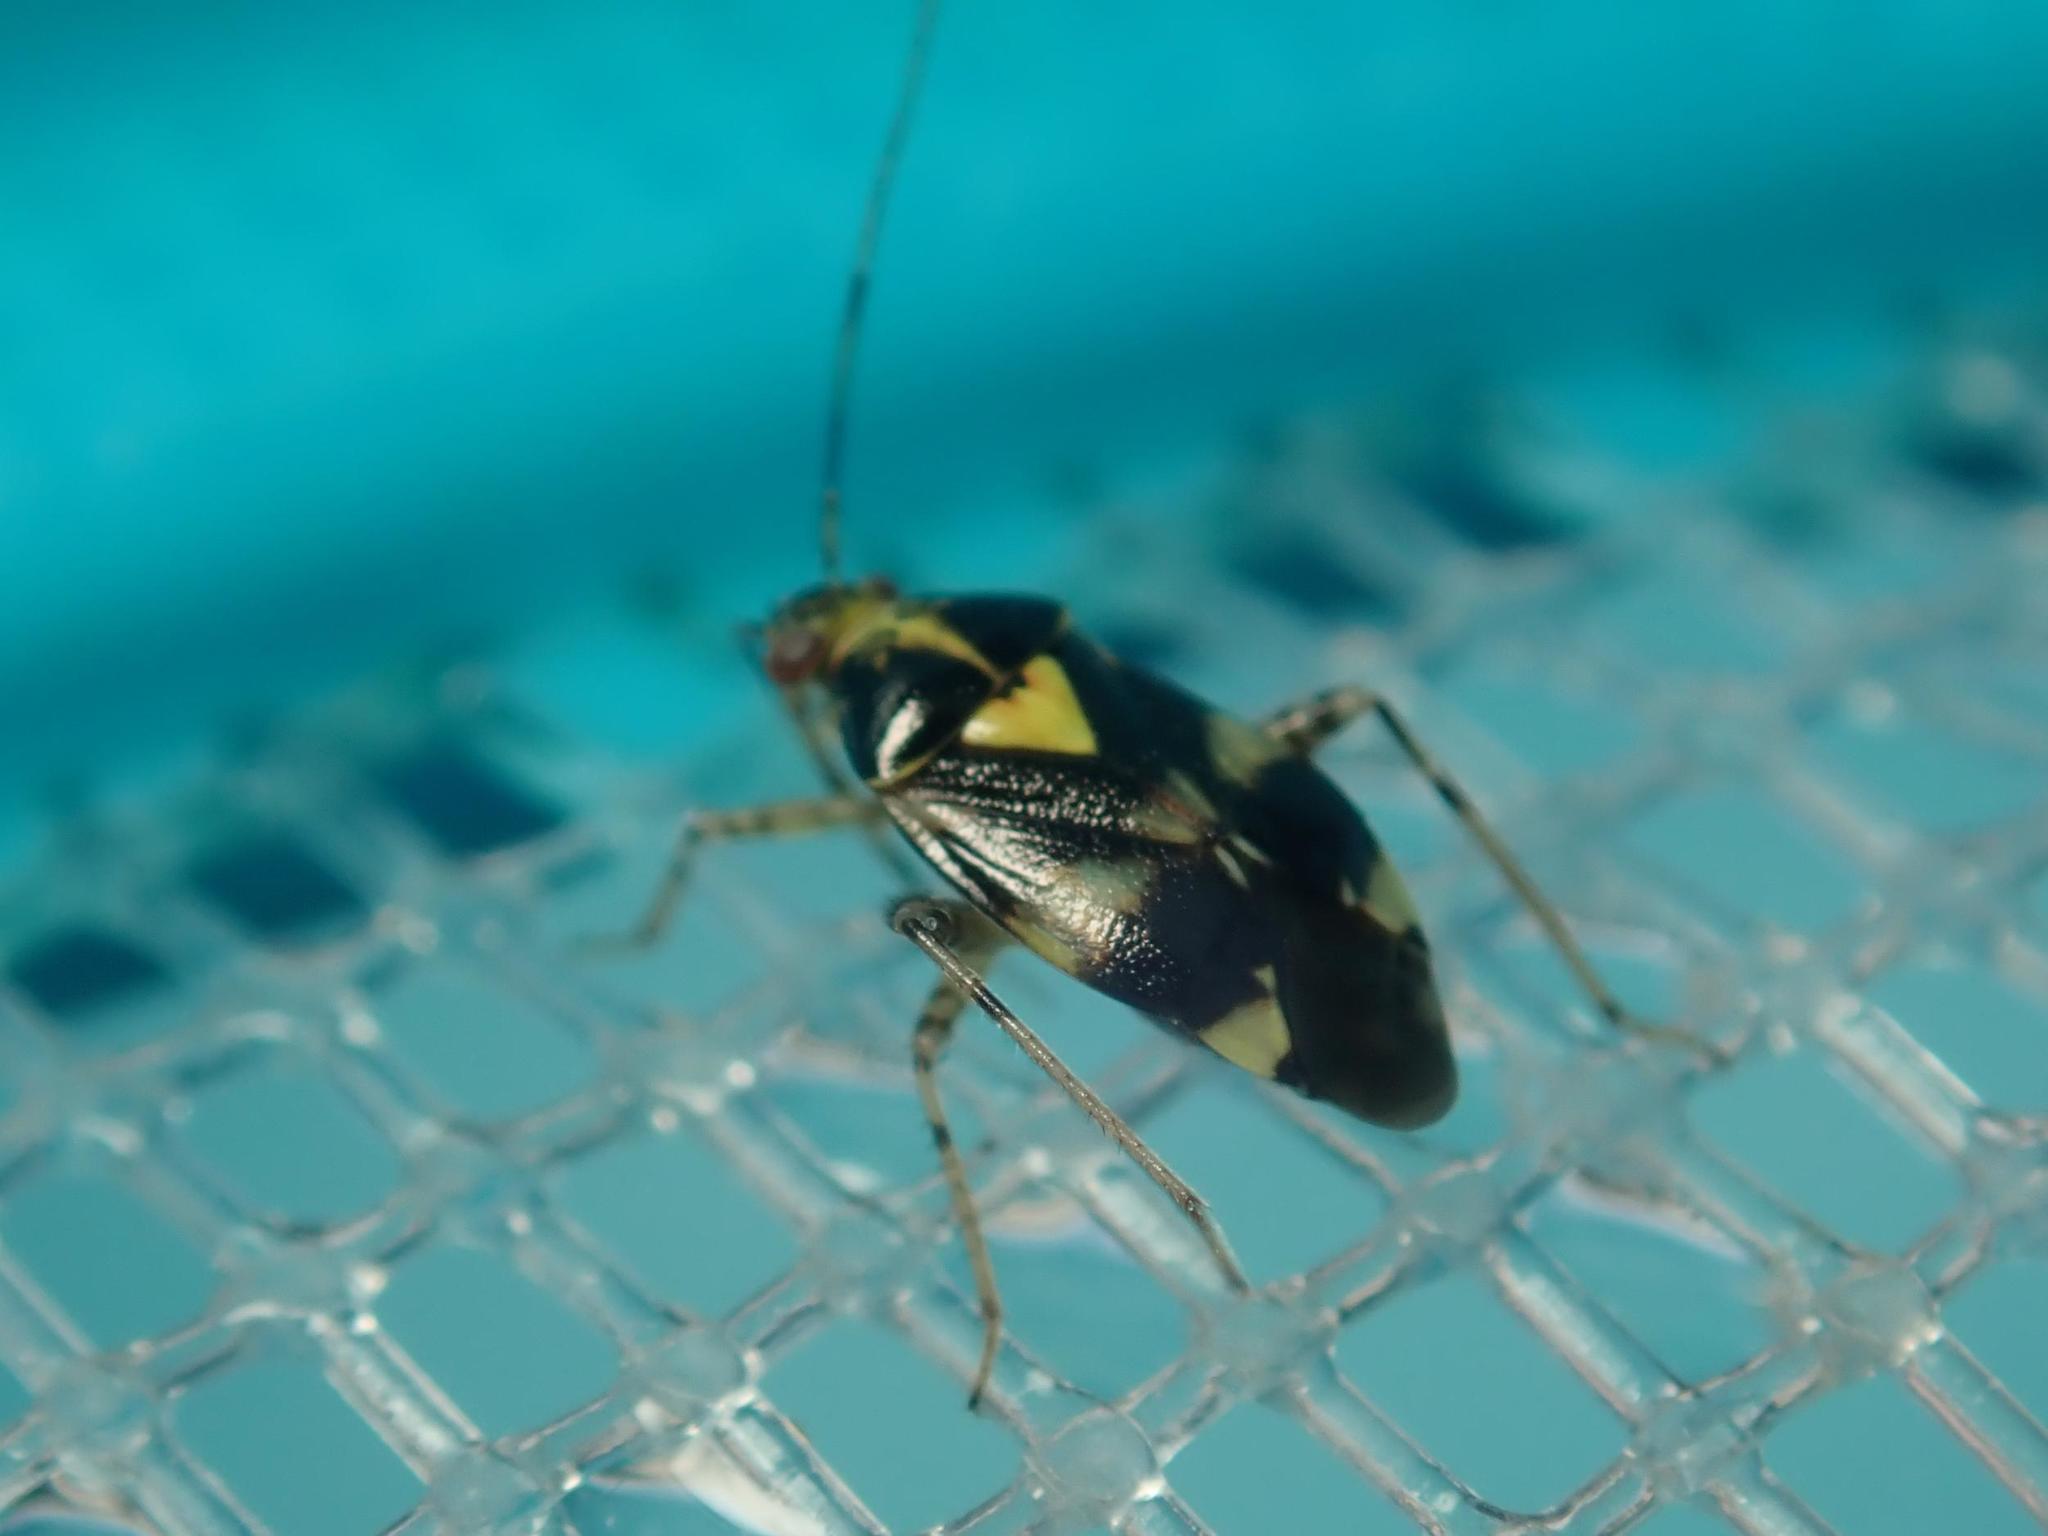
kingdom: Animalia
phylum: Arthropoda
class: Insecta
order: Hemiptera
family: Miridae
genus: Liocoris
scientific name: Liocoris tripustulatus
